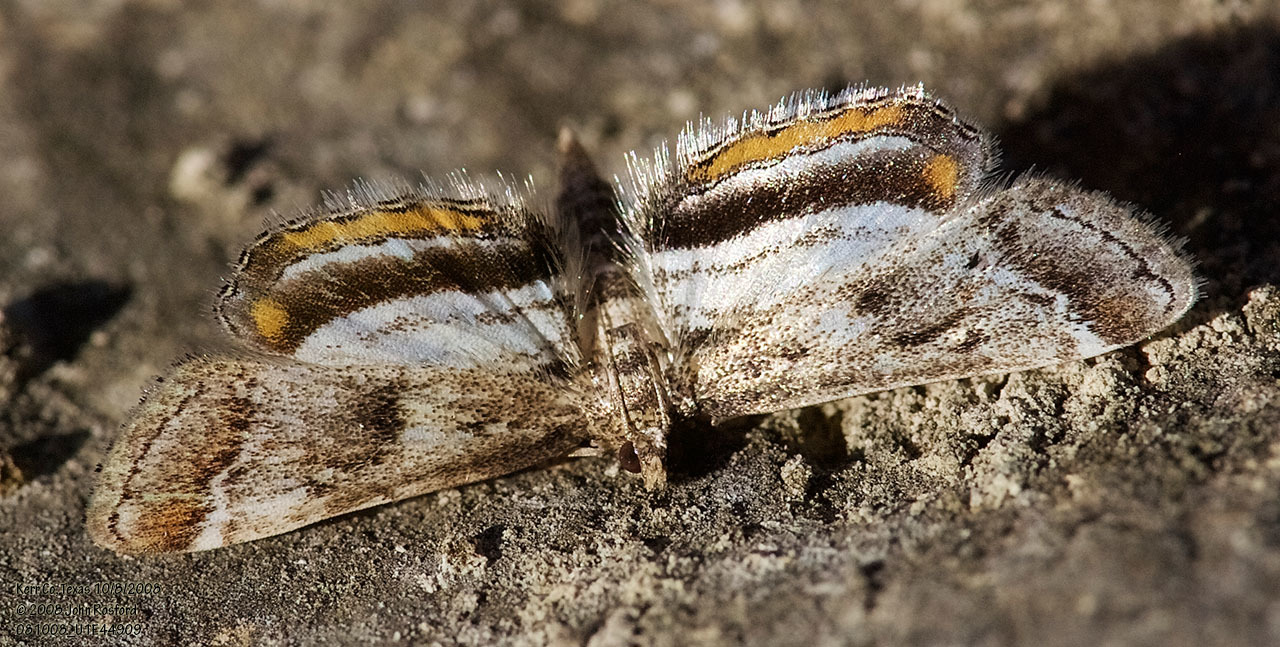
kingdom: Animalia
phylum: Arthropoda
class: Insecta
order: Lepidoptera
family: Crambidae
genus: Parapoynx
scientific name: Parapoynx obscuralis
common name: American china-mark
